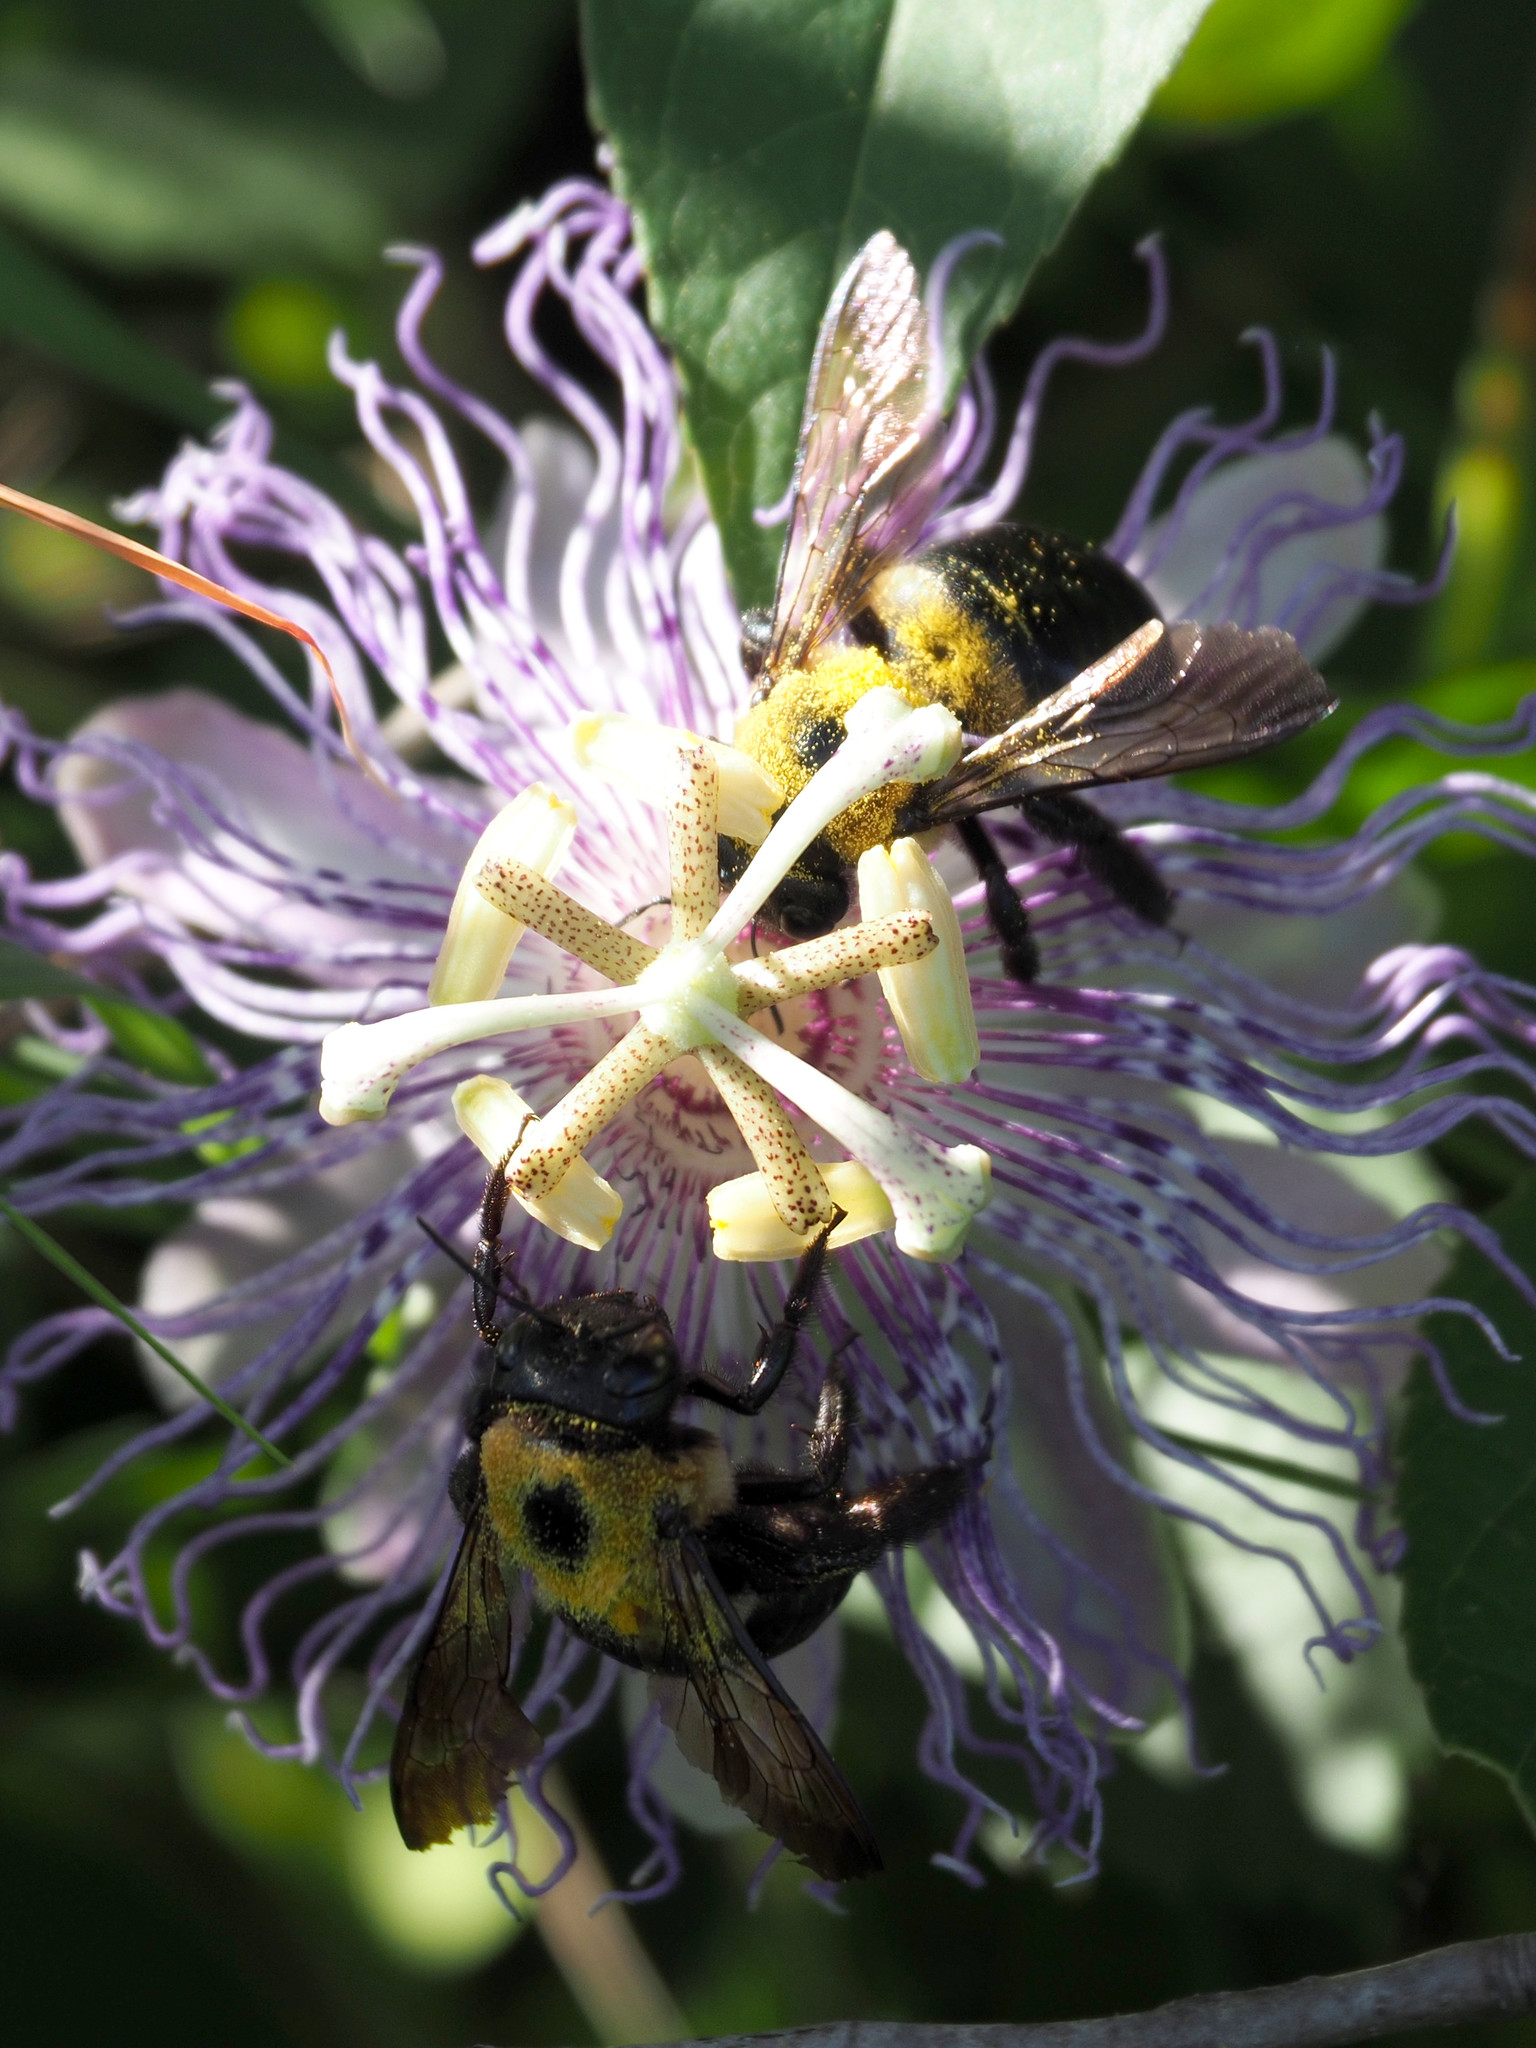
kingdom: Animalia
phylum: Arthropoda
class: Insecta
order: Hymenoptera
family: Apidae
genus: Xylocopa
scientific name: Xylocopa virginica
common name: Carpenter bee
